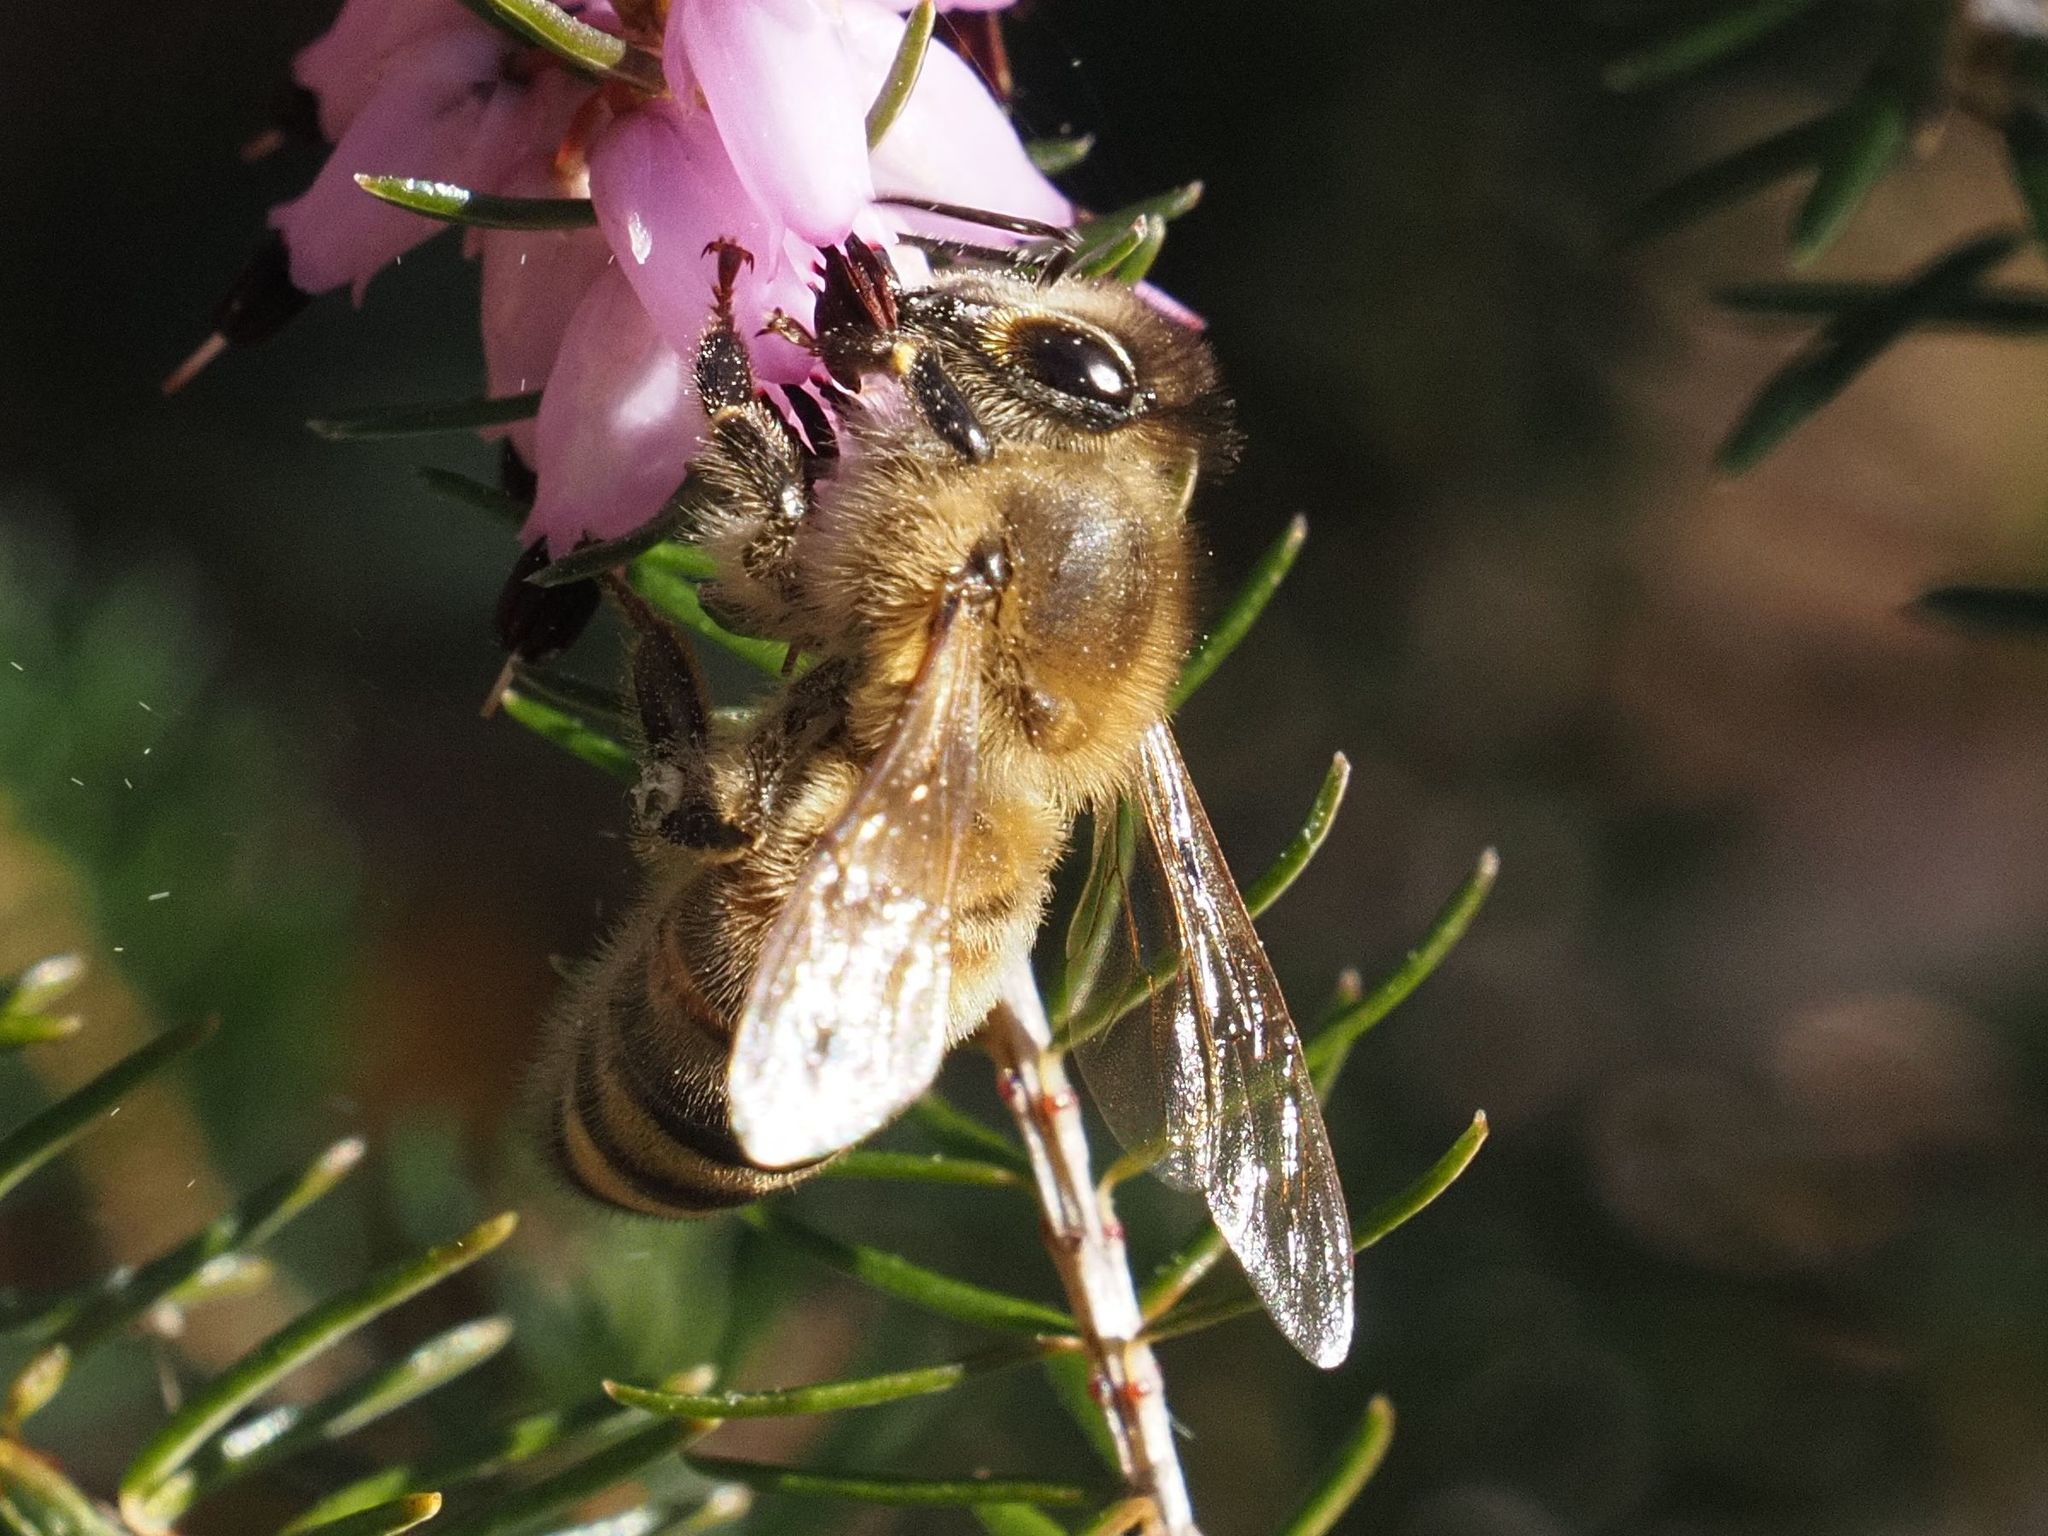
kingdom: Animalia
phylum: Arthropoda
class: Insecta
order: Hymenoptera
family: Apidae
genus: Apis
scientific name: Apis mellifera
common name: Honey bee
